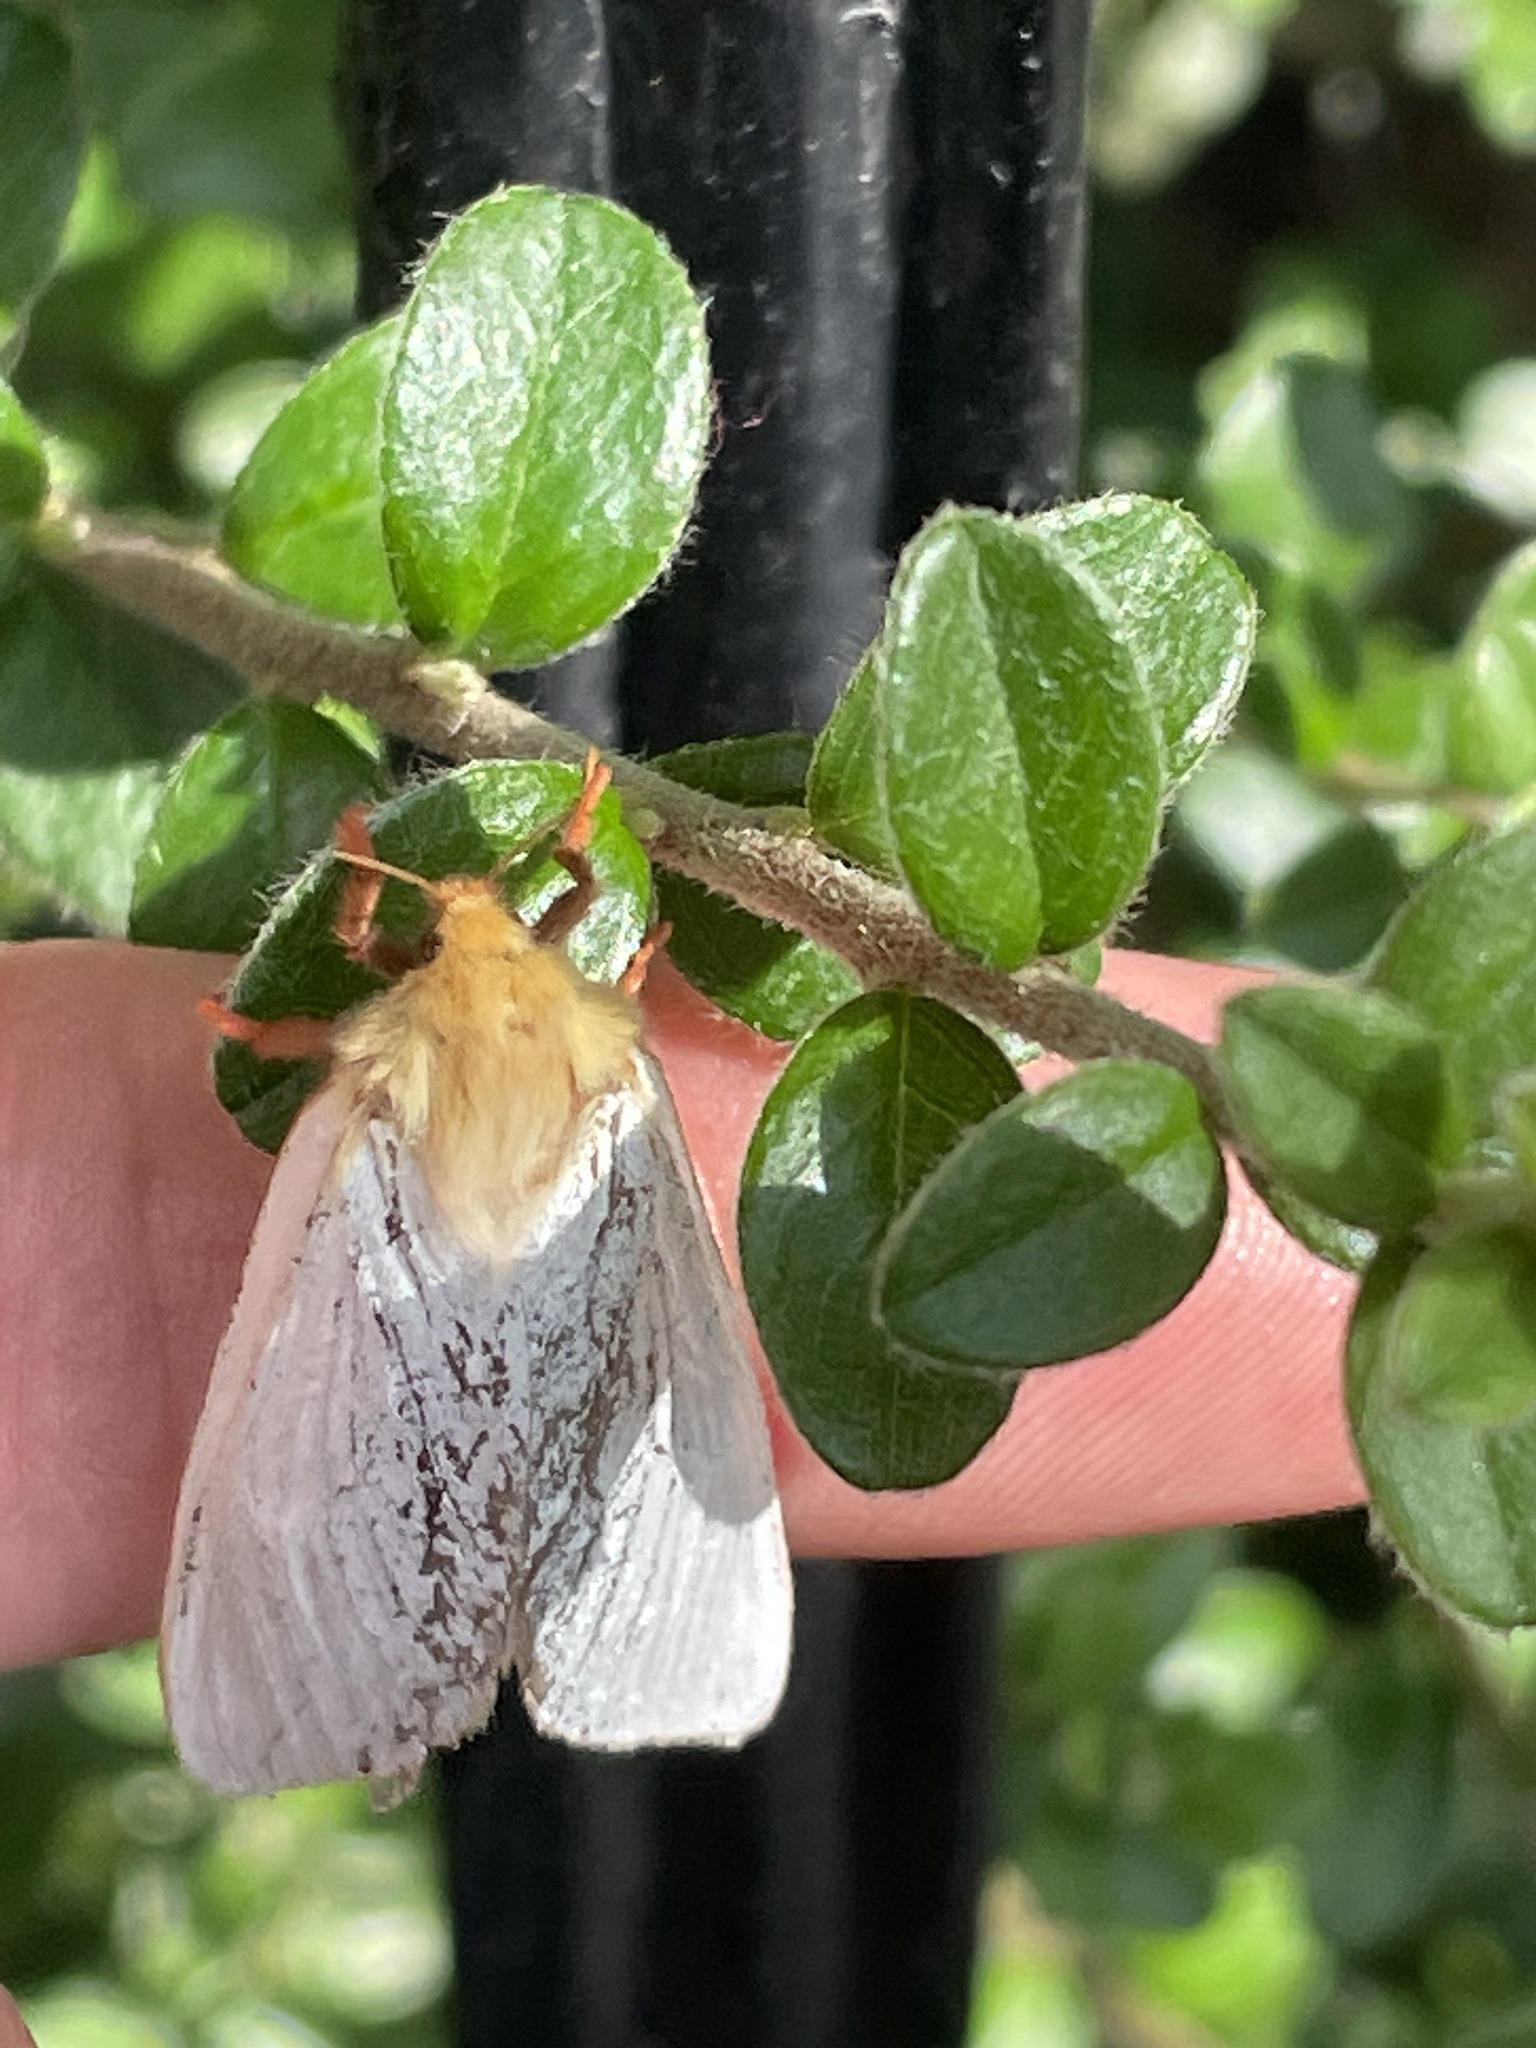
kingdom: Animalia
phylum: Arthropoda
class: Insecta
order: Lepidoptera
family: Hepialidae
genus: Hepialus
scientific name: Hepialus humuli
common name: Ghost moth
